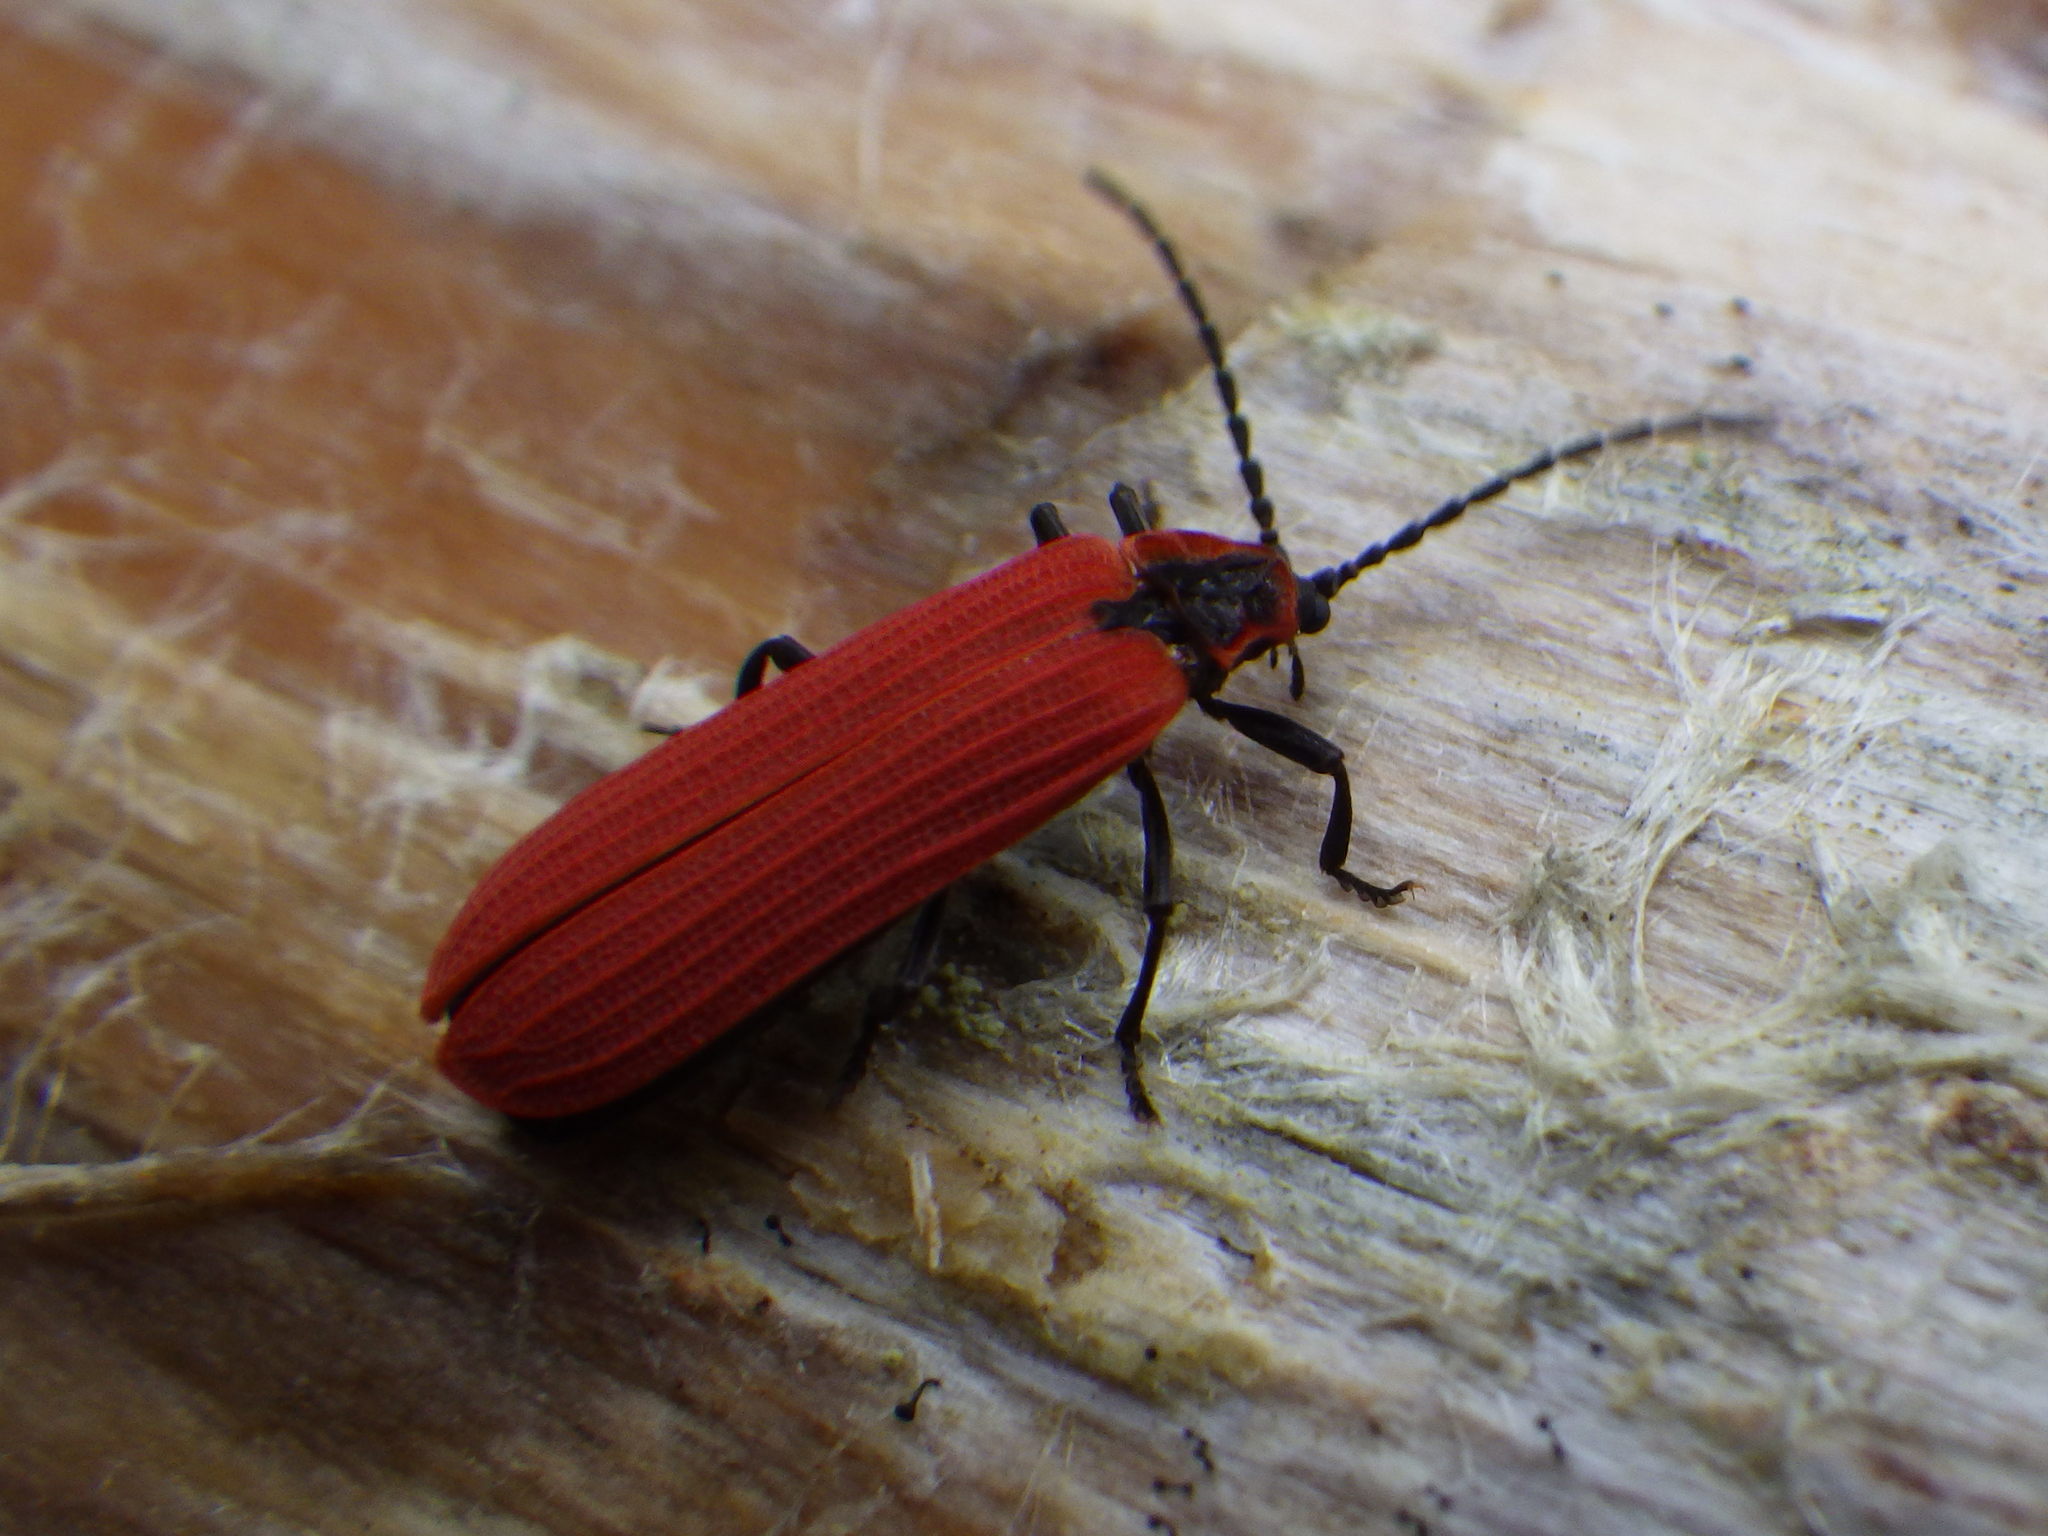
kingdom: Animalia
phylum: Arthropoda
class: Insecta
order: Coleoptera
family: Lycidae
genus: Dictyoptera
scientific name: Dictyoptera aurora
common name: Golden net-winged beetle
